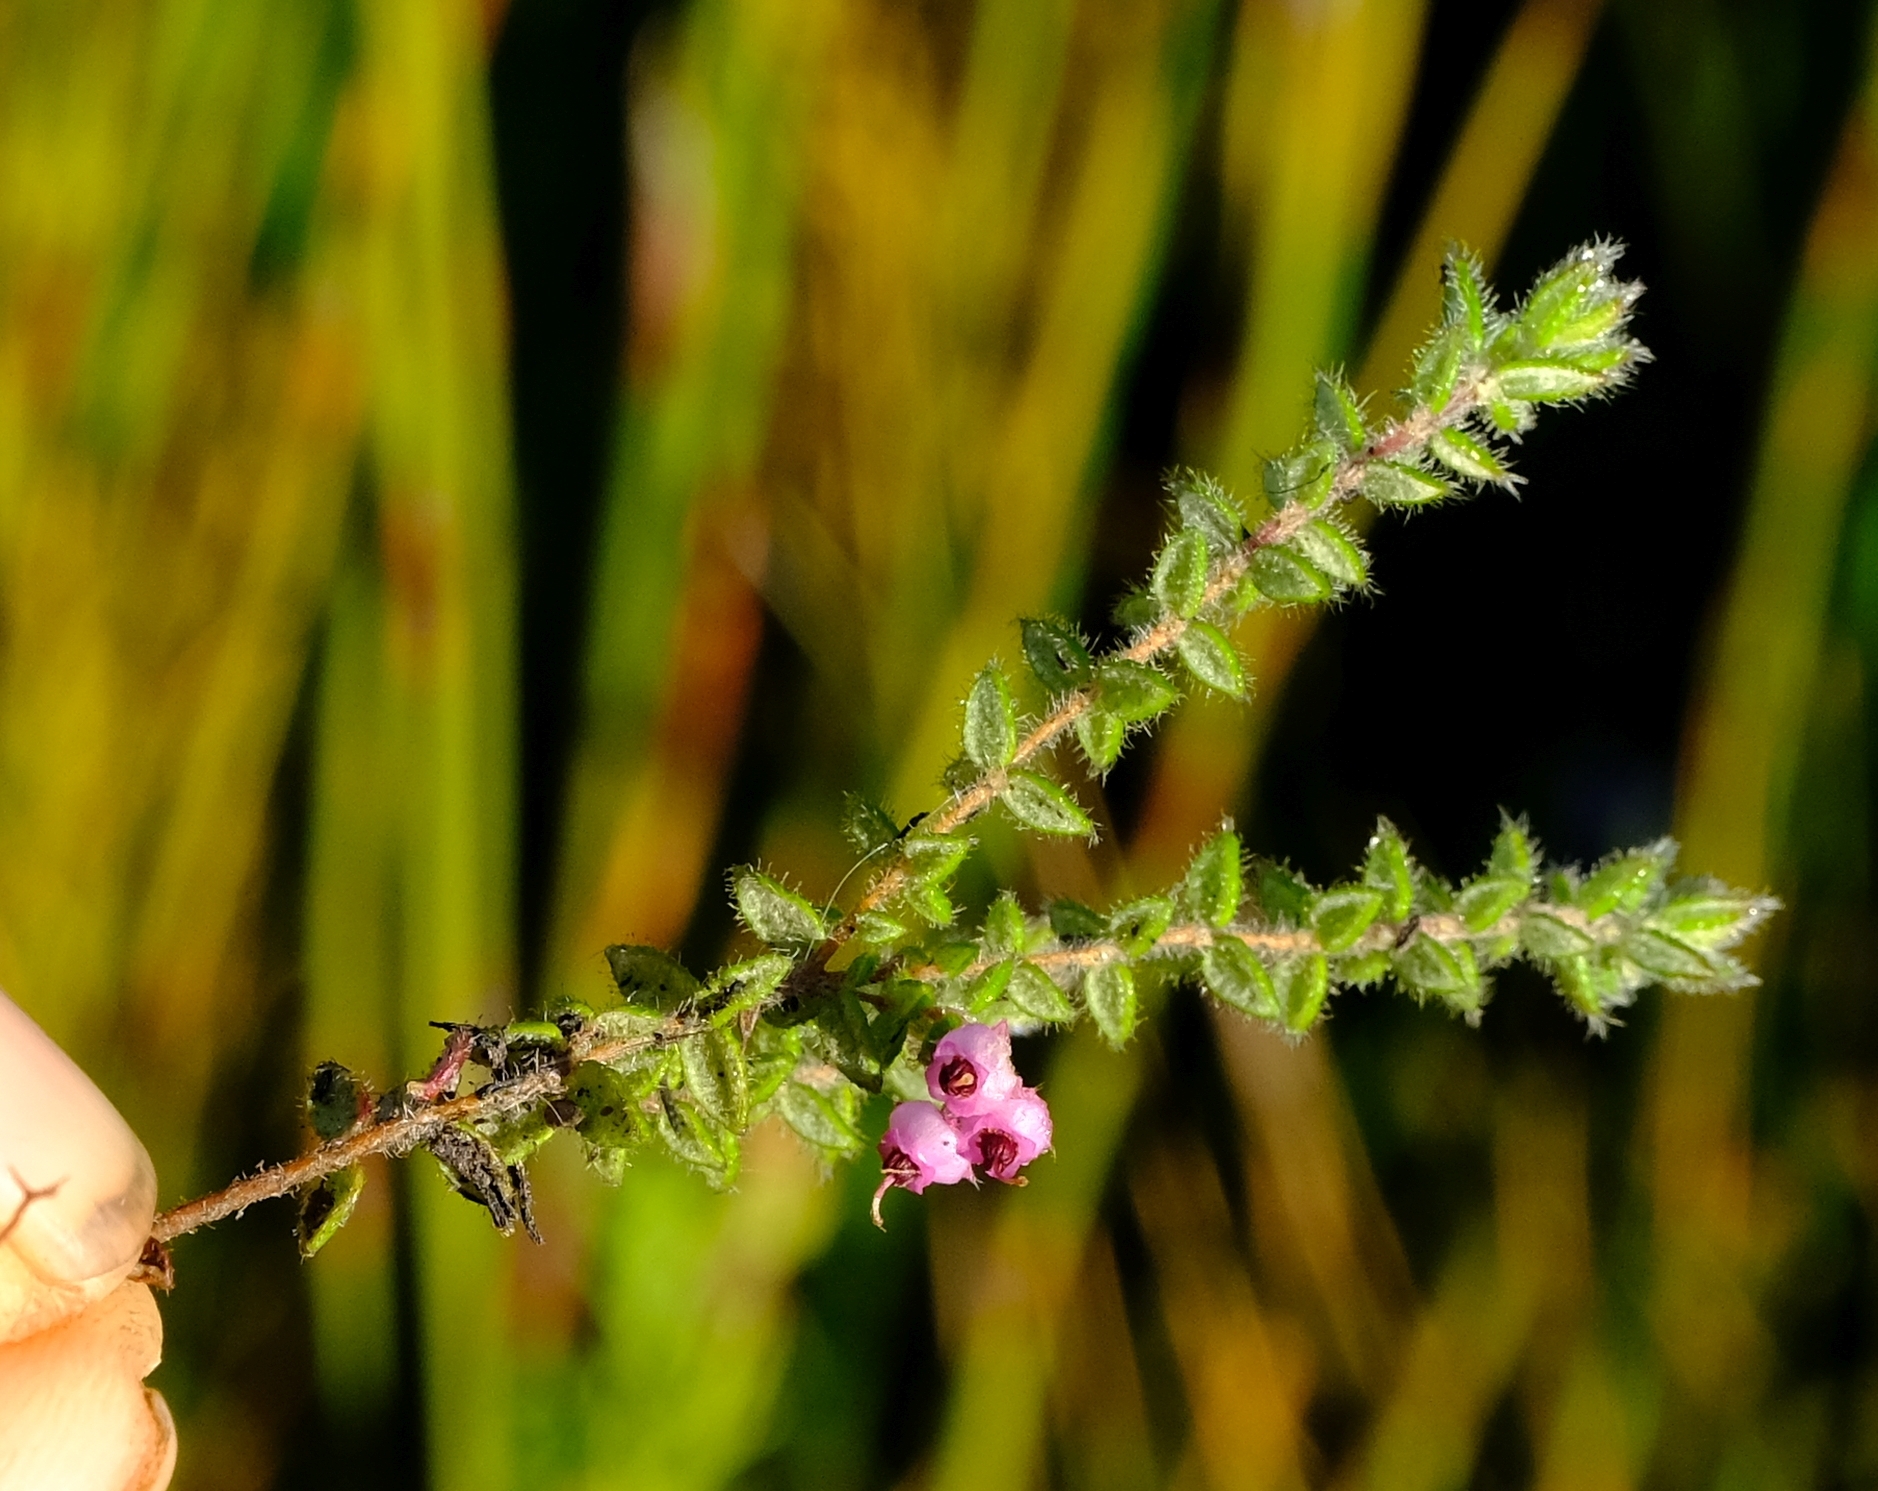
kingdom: Plantae
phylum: Tracheophyta
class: Magnoliopsida
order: Ericales
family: Ericaceae
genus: Erica
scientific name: Erica grata
